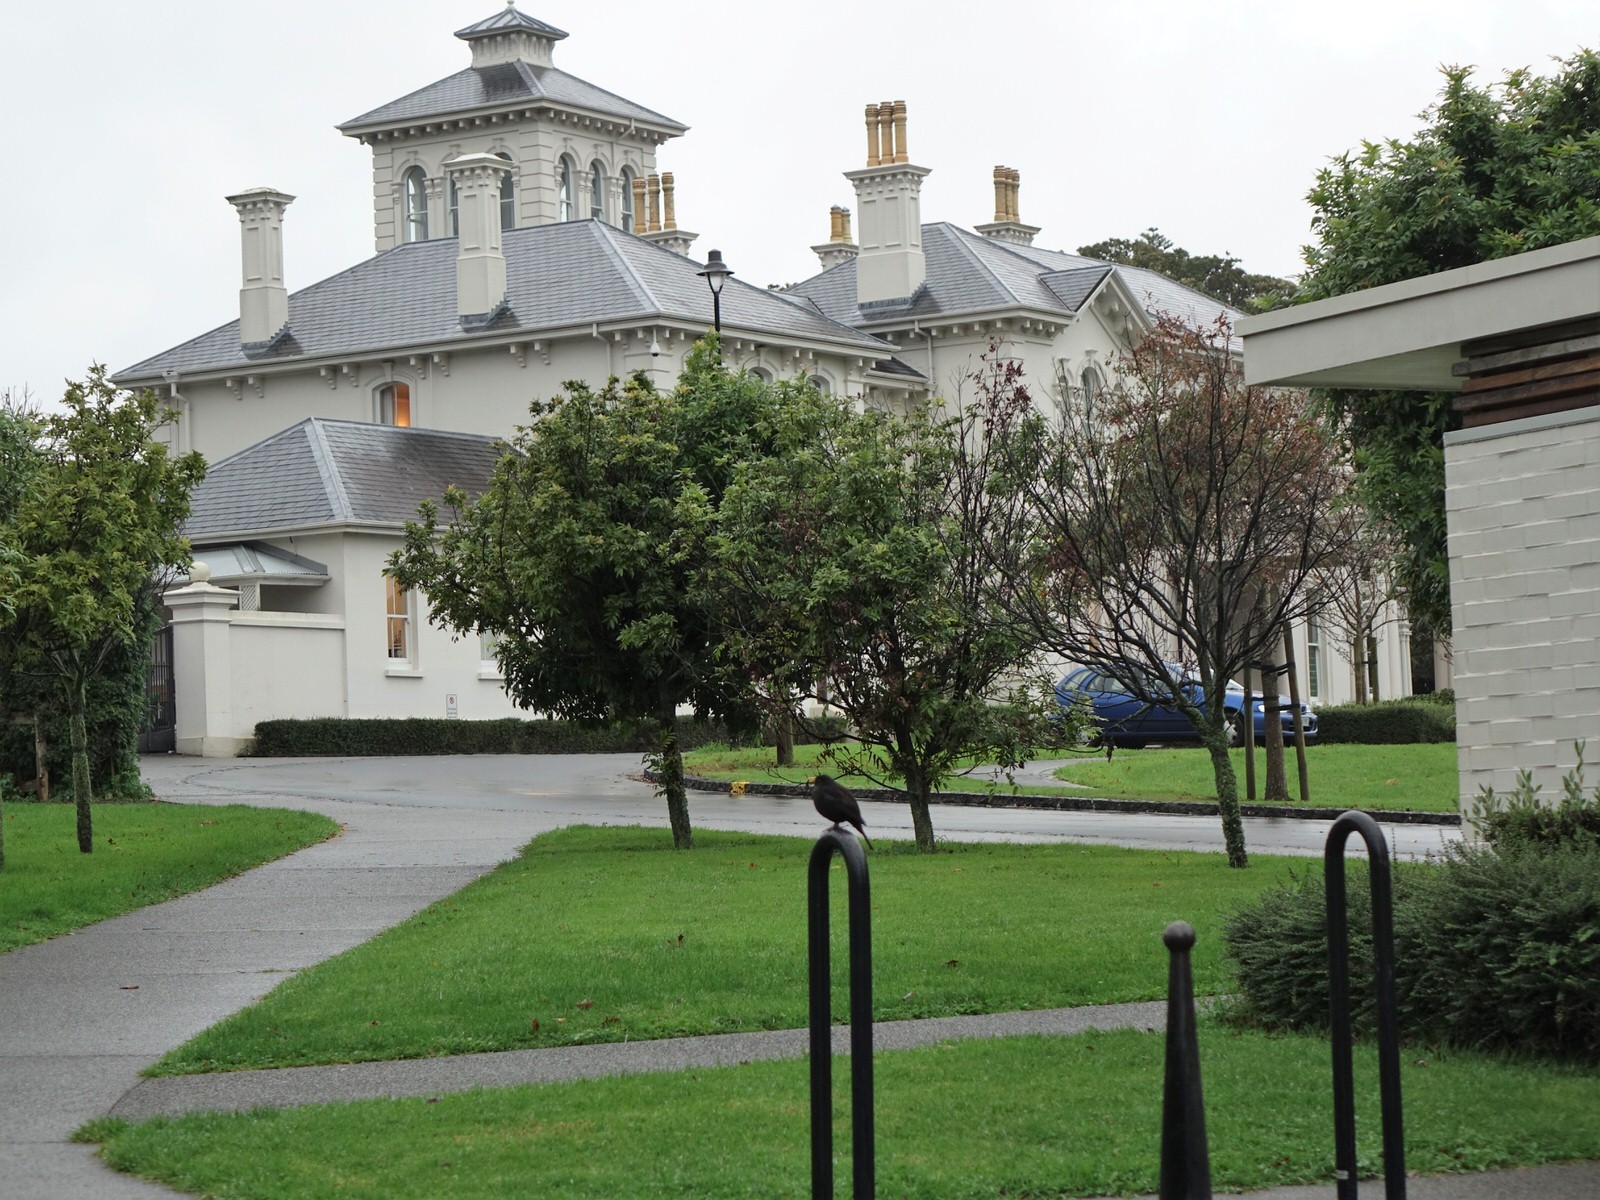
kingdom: Animalia
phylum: Chordata
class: Aves
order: Passeriformes
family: Turdidae
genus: Turdus
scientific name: Turdus merula
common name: Common blackbird
